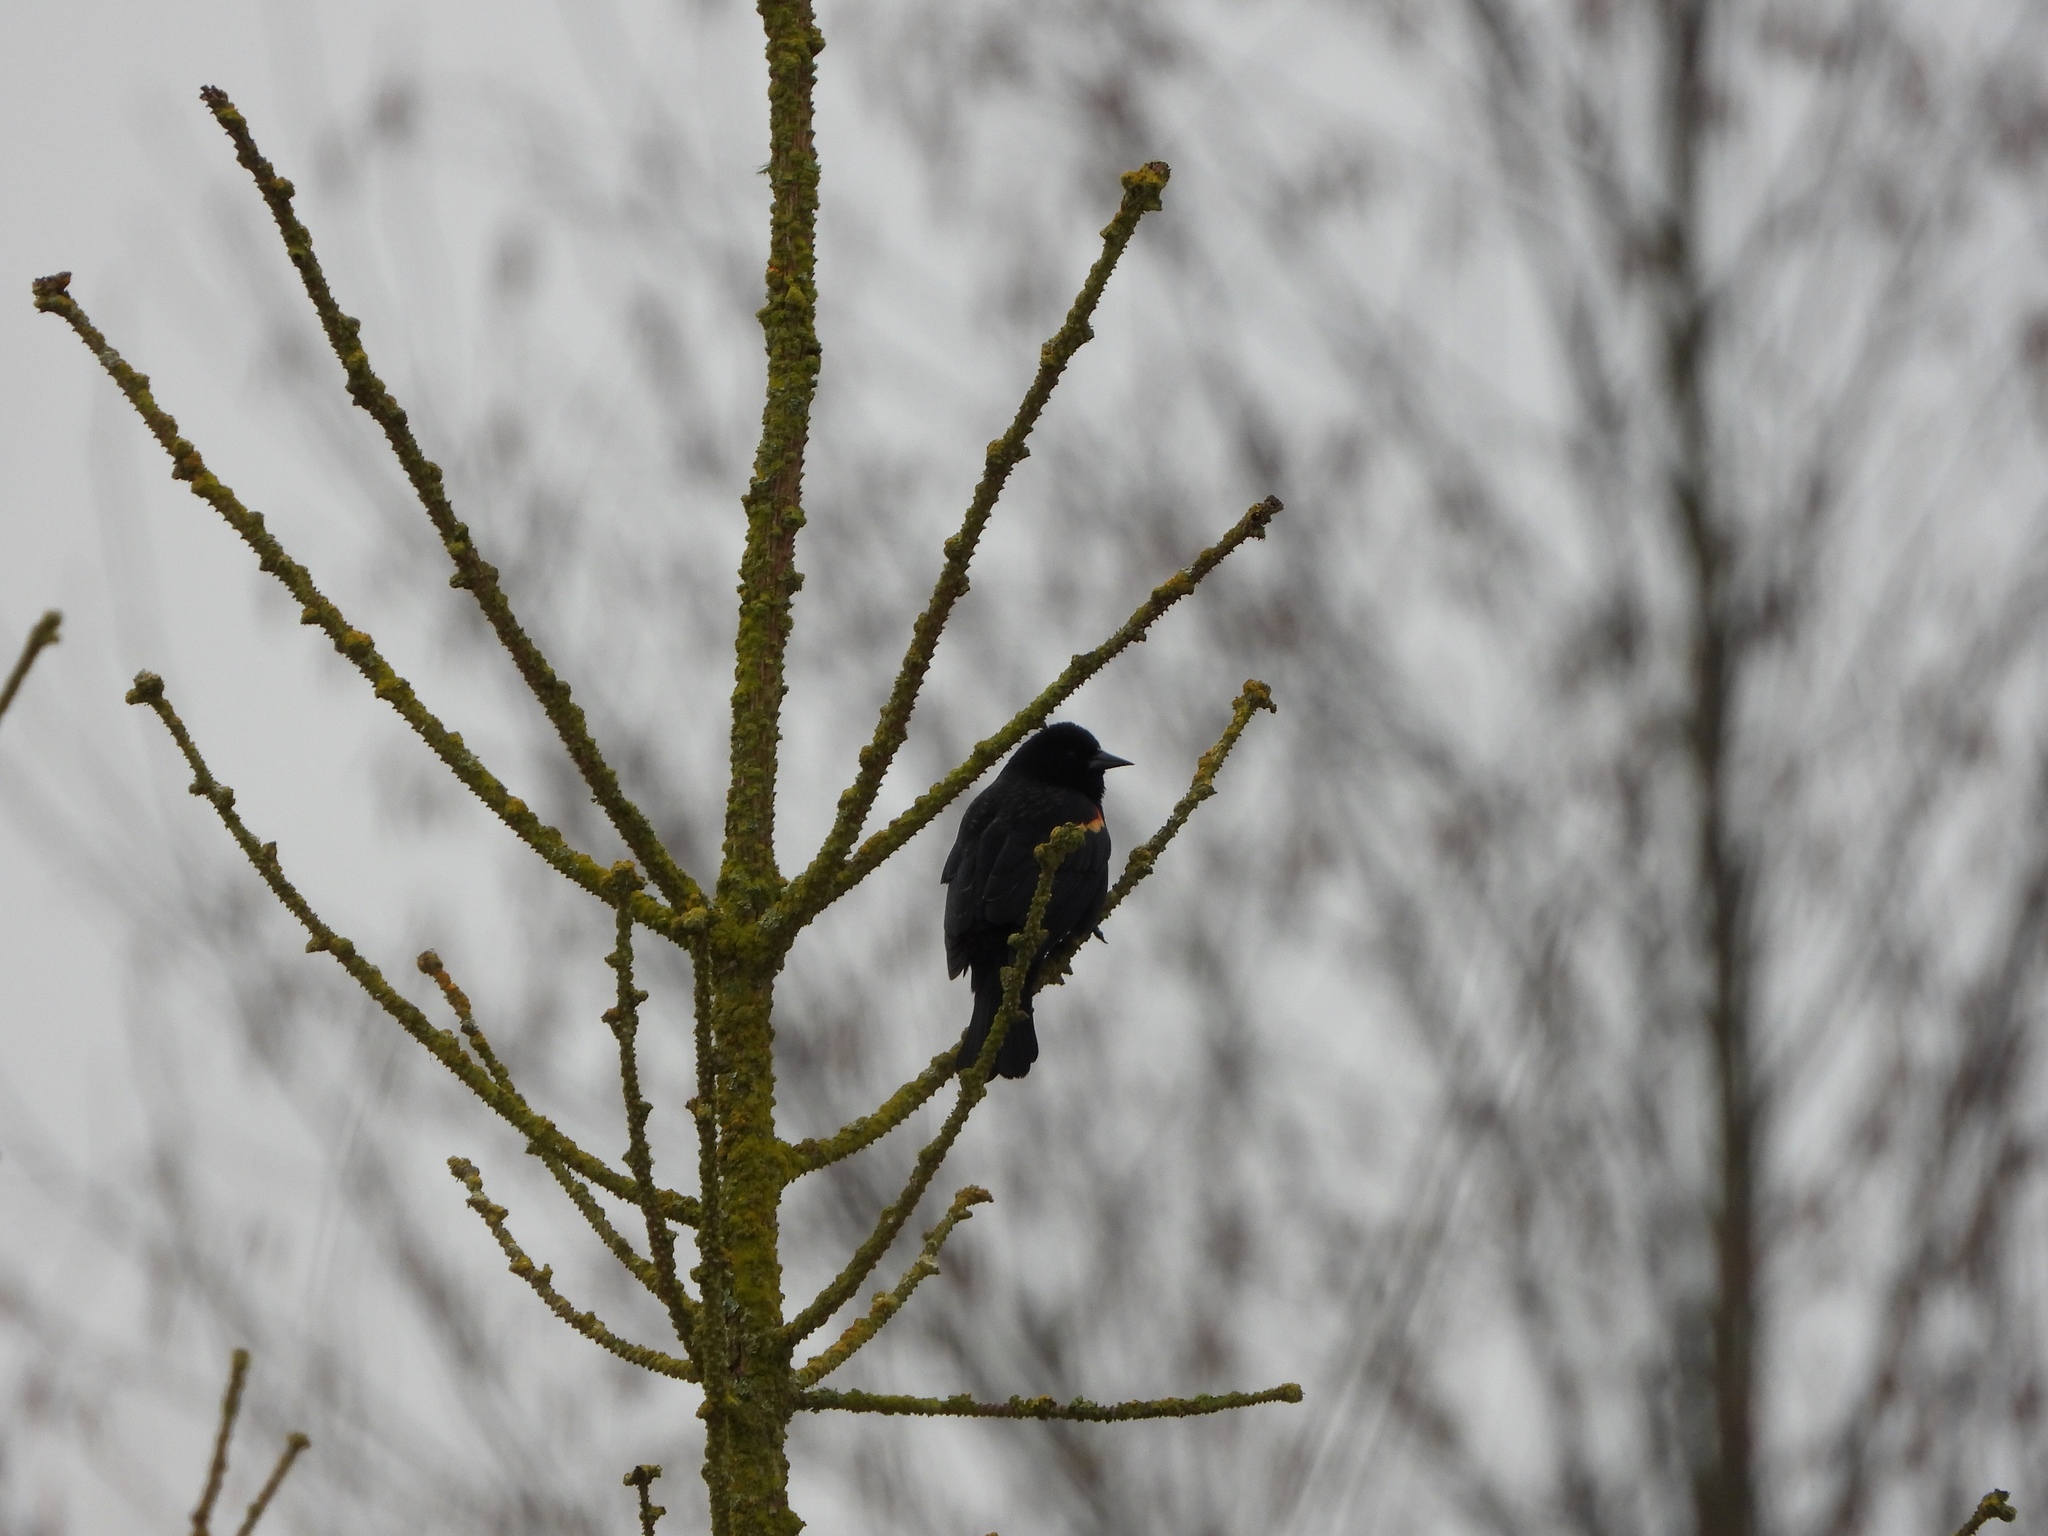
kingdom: Animalia
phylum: Chordata
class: Aves
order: Passeriformes
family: Icteridae
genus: Agelaius
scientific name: Agelaius phoeniceus
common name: Red-winged blackbird
